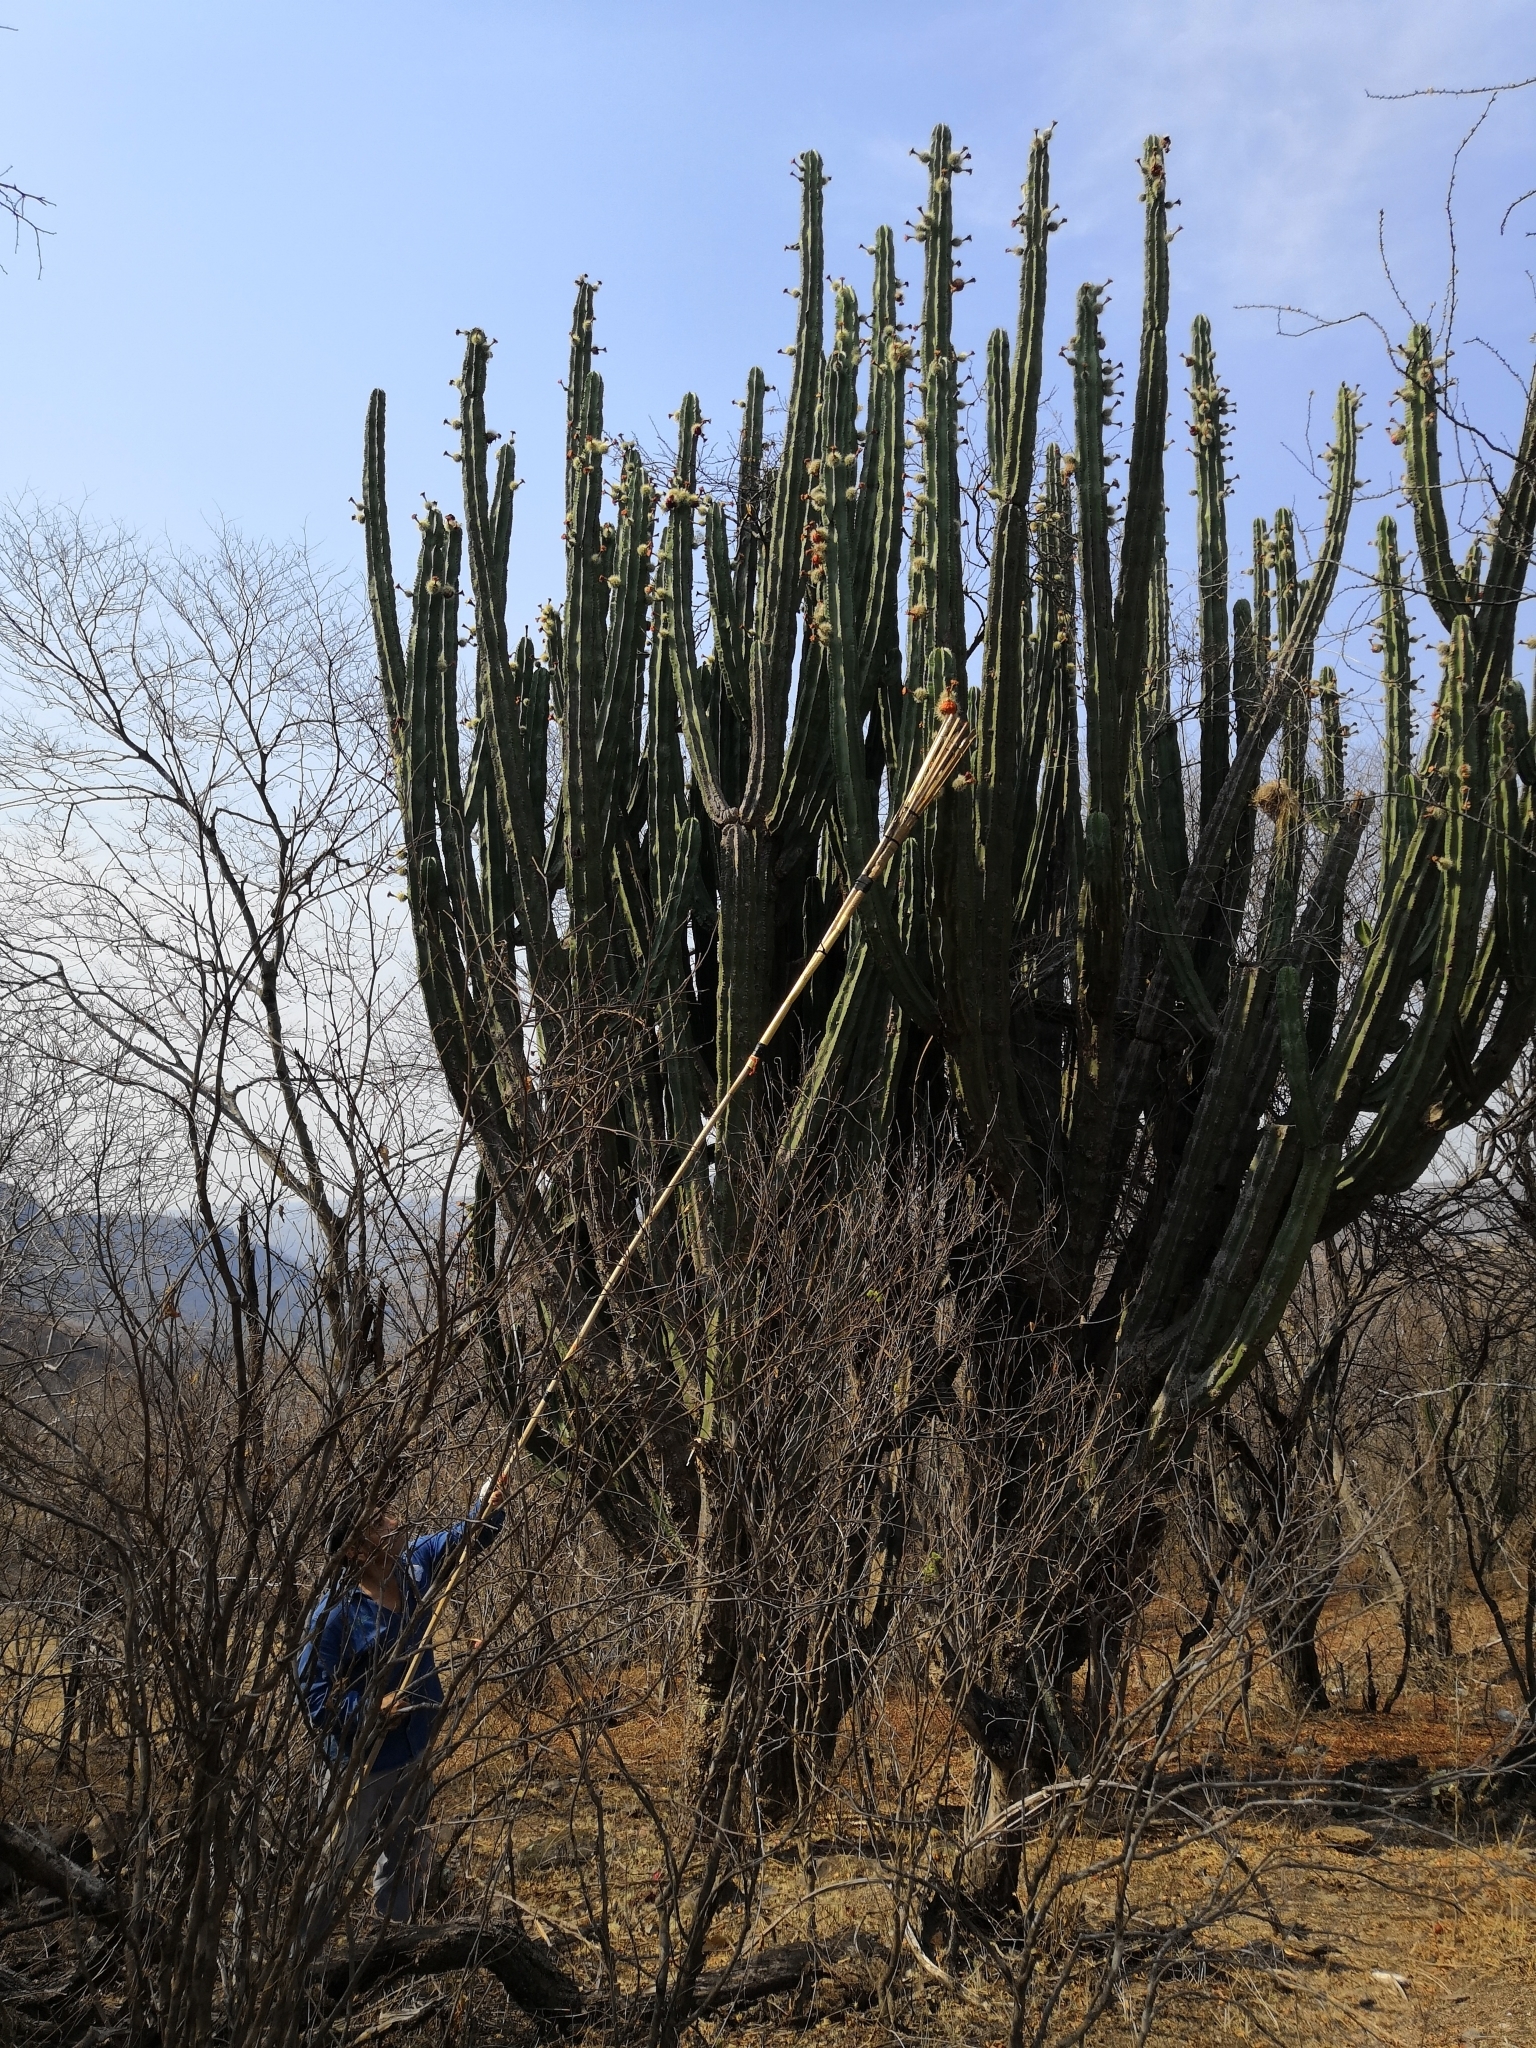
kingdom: Plantae
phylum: Tracheophyta
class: Magnoliopsida
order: Caryophyllales
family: Cactaceae
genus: Stenocereus
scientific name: Stenocereus queretaroensis
